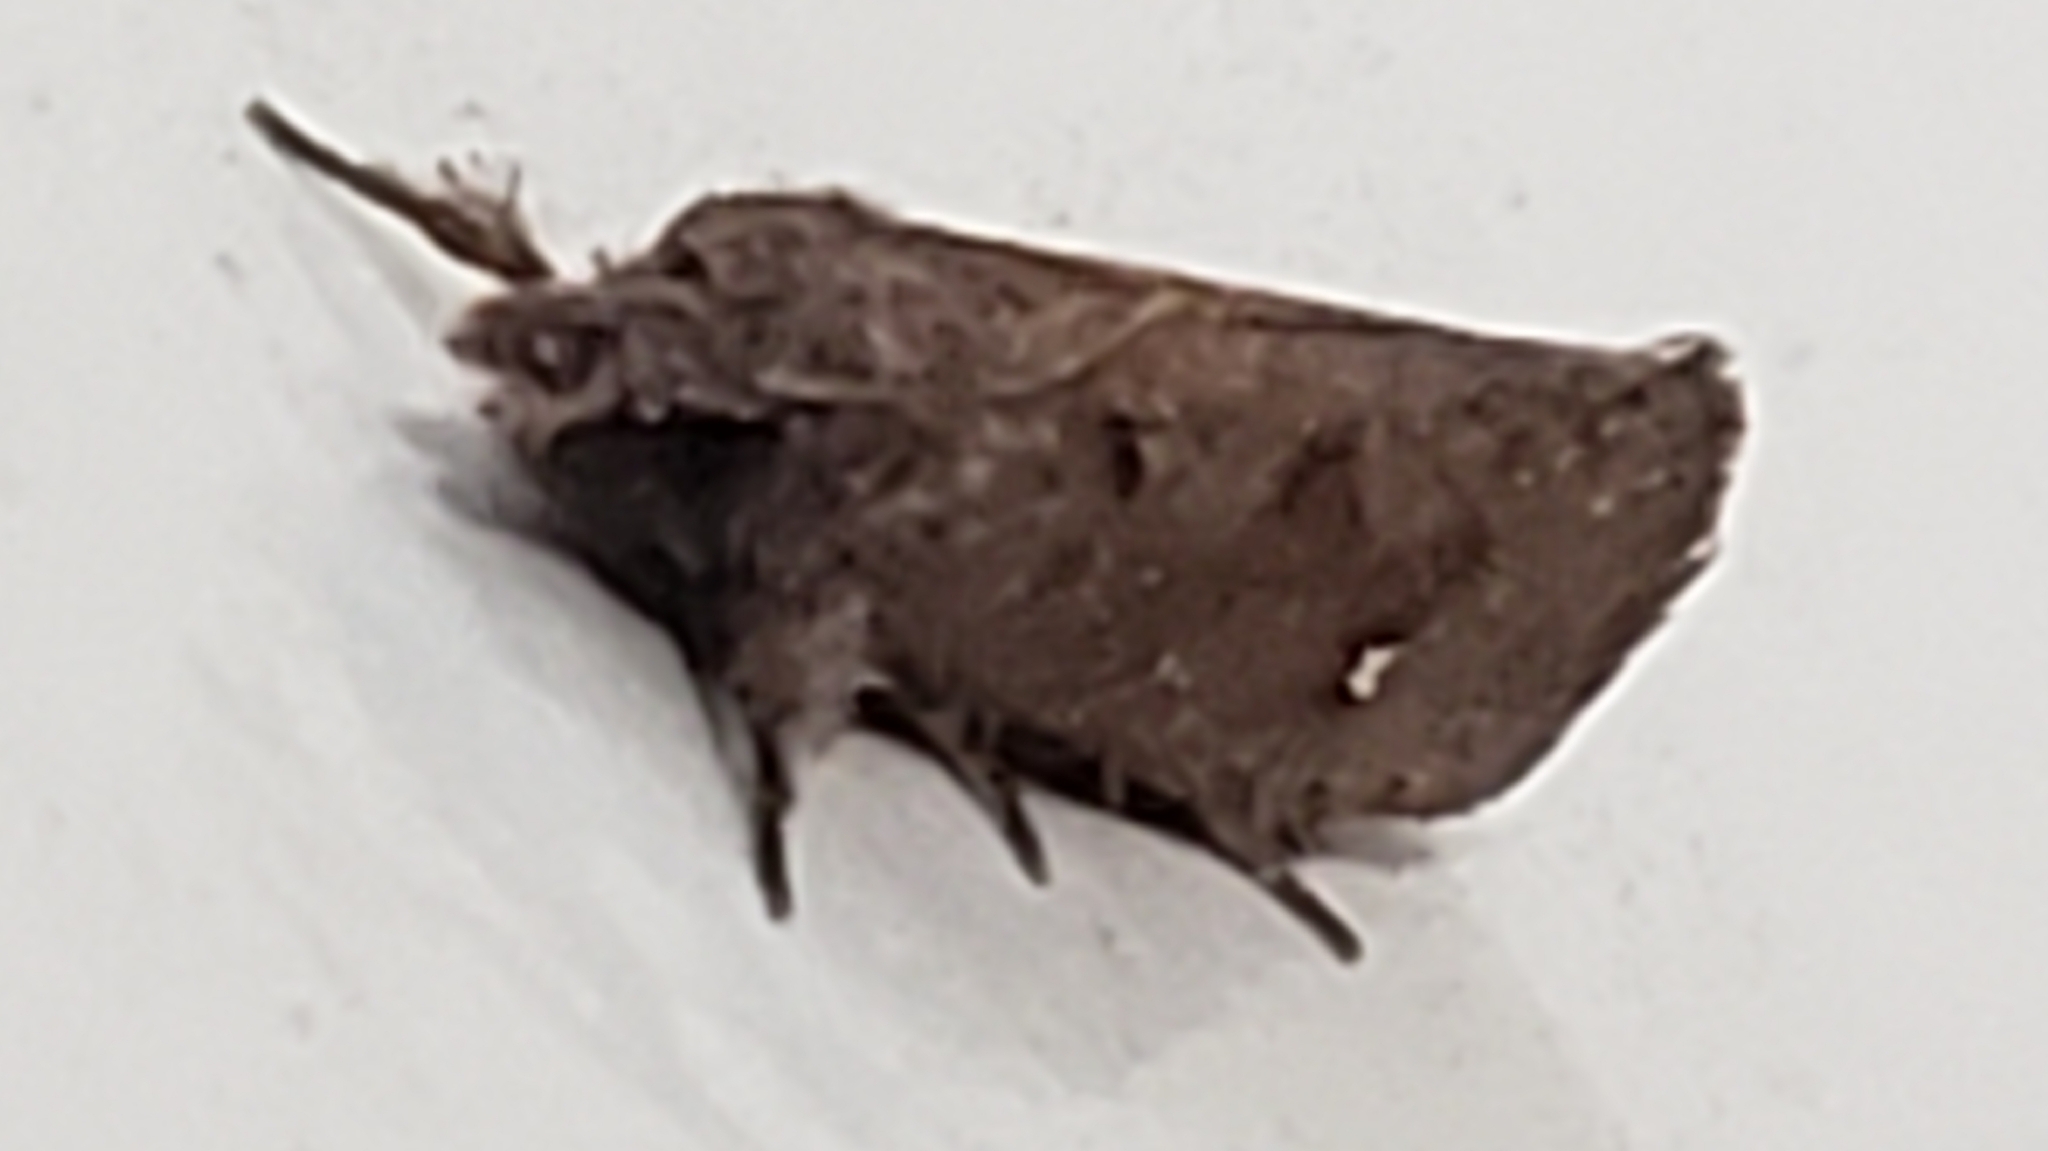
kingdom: Animalia
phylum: Arthropoda
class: Insecta
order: Lepidoptera
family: Tineidae
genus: Acrolophus
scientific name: Acrolophus walsinghami
